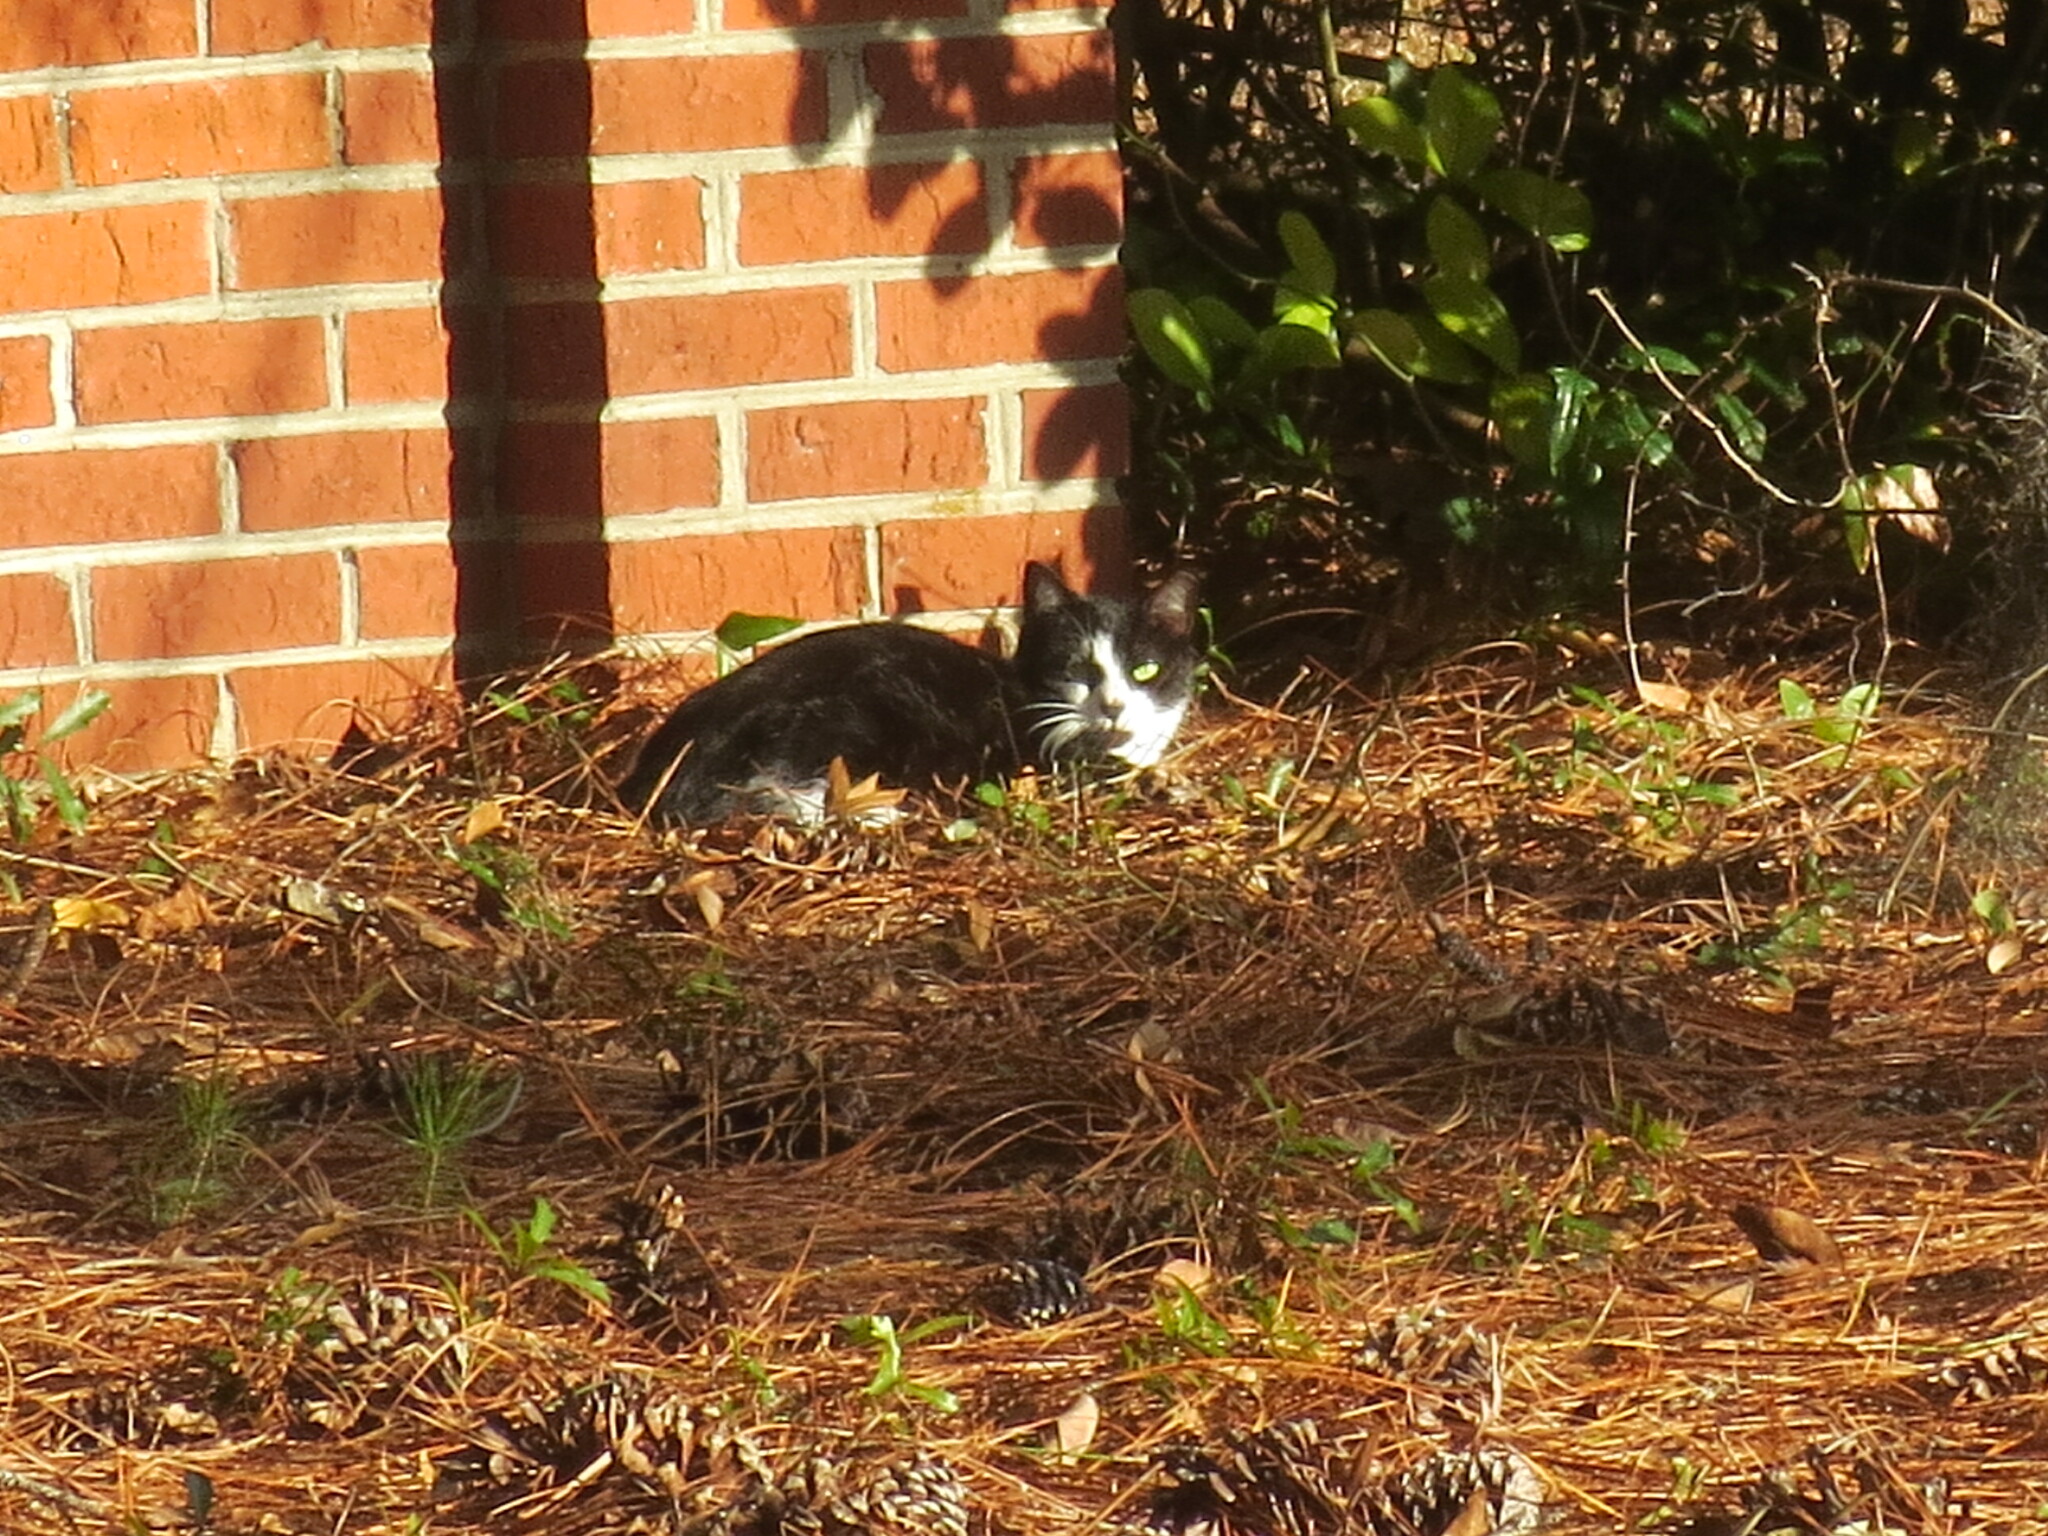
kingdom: Animalia
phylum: Chordata
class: Mammalia
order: Carnivora
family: Felidae
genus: Felis
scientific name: Felis catus
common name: Domestic cat
